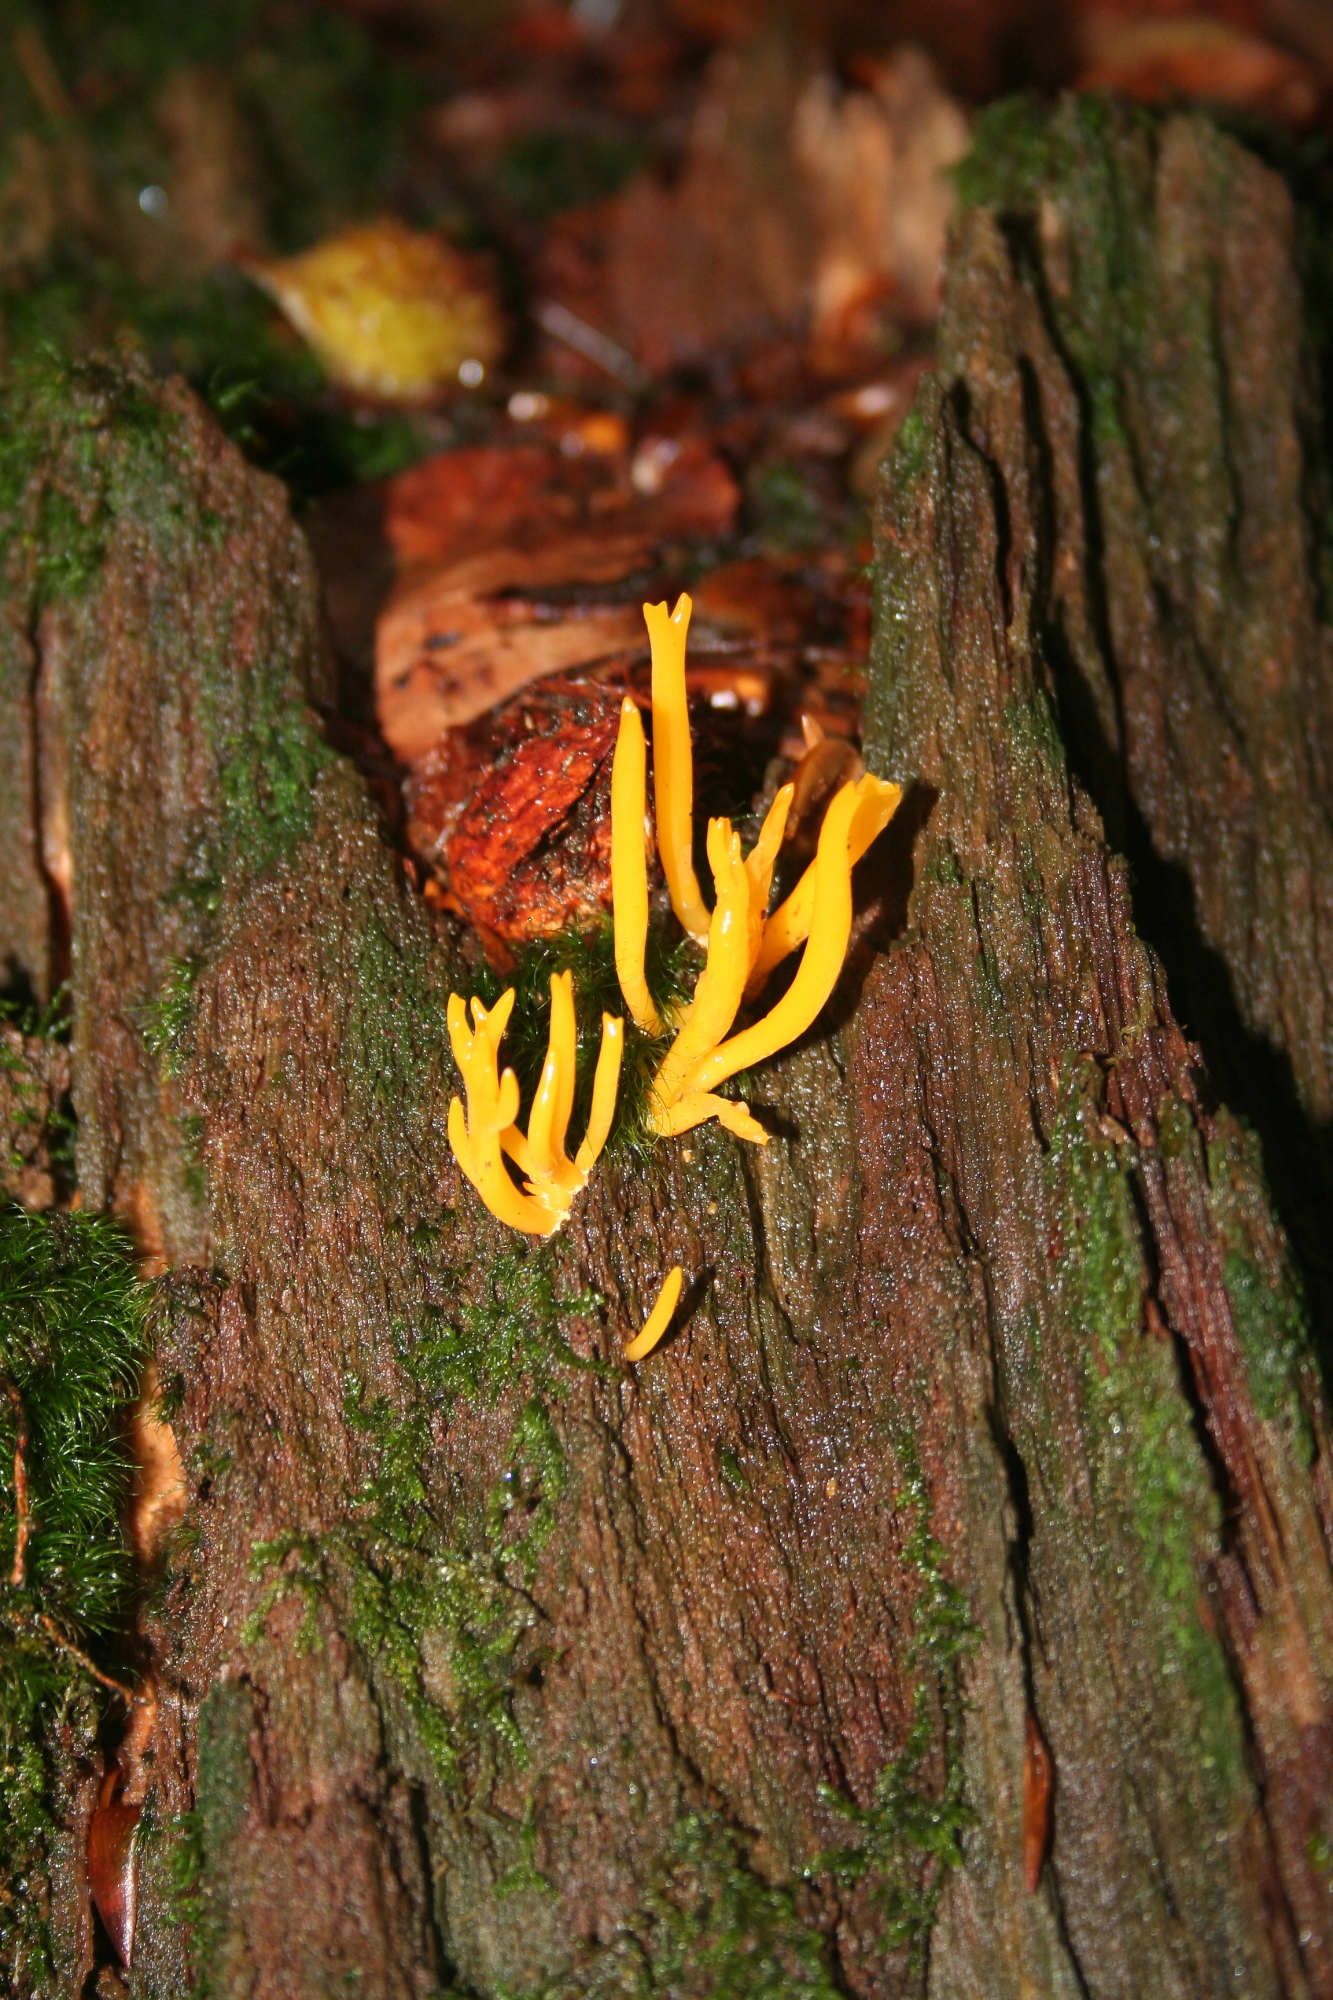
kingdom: Fungi
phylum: Basidiomycota
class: Dacrymycetes
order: Dacrymycetales
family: Dacrymycetaceae
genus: Calocera
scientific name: Calocera viscosa
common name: Yellow stagshorn
